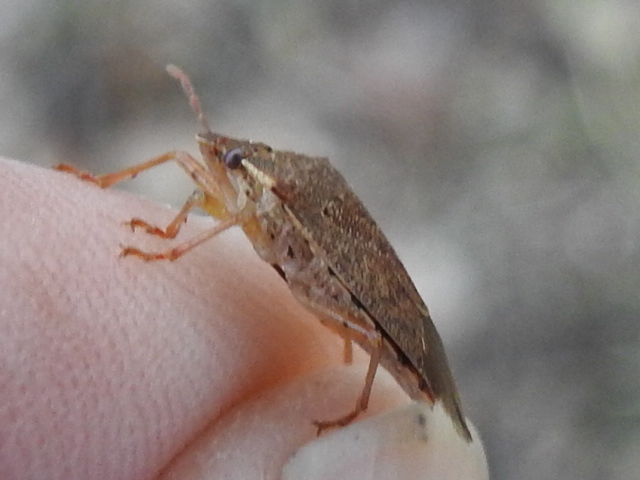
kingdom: Animalia
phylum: Arthropoda
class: Insecta
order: Hemiptera
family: Pentatomidae
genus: Podisus
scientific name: Podisus maculiventris
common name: Spined soldier bug
